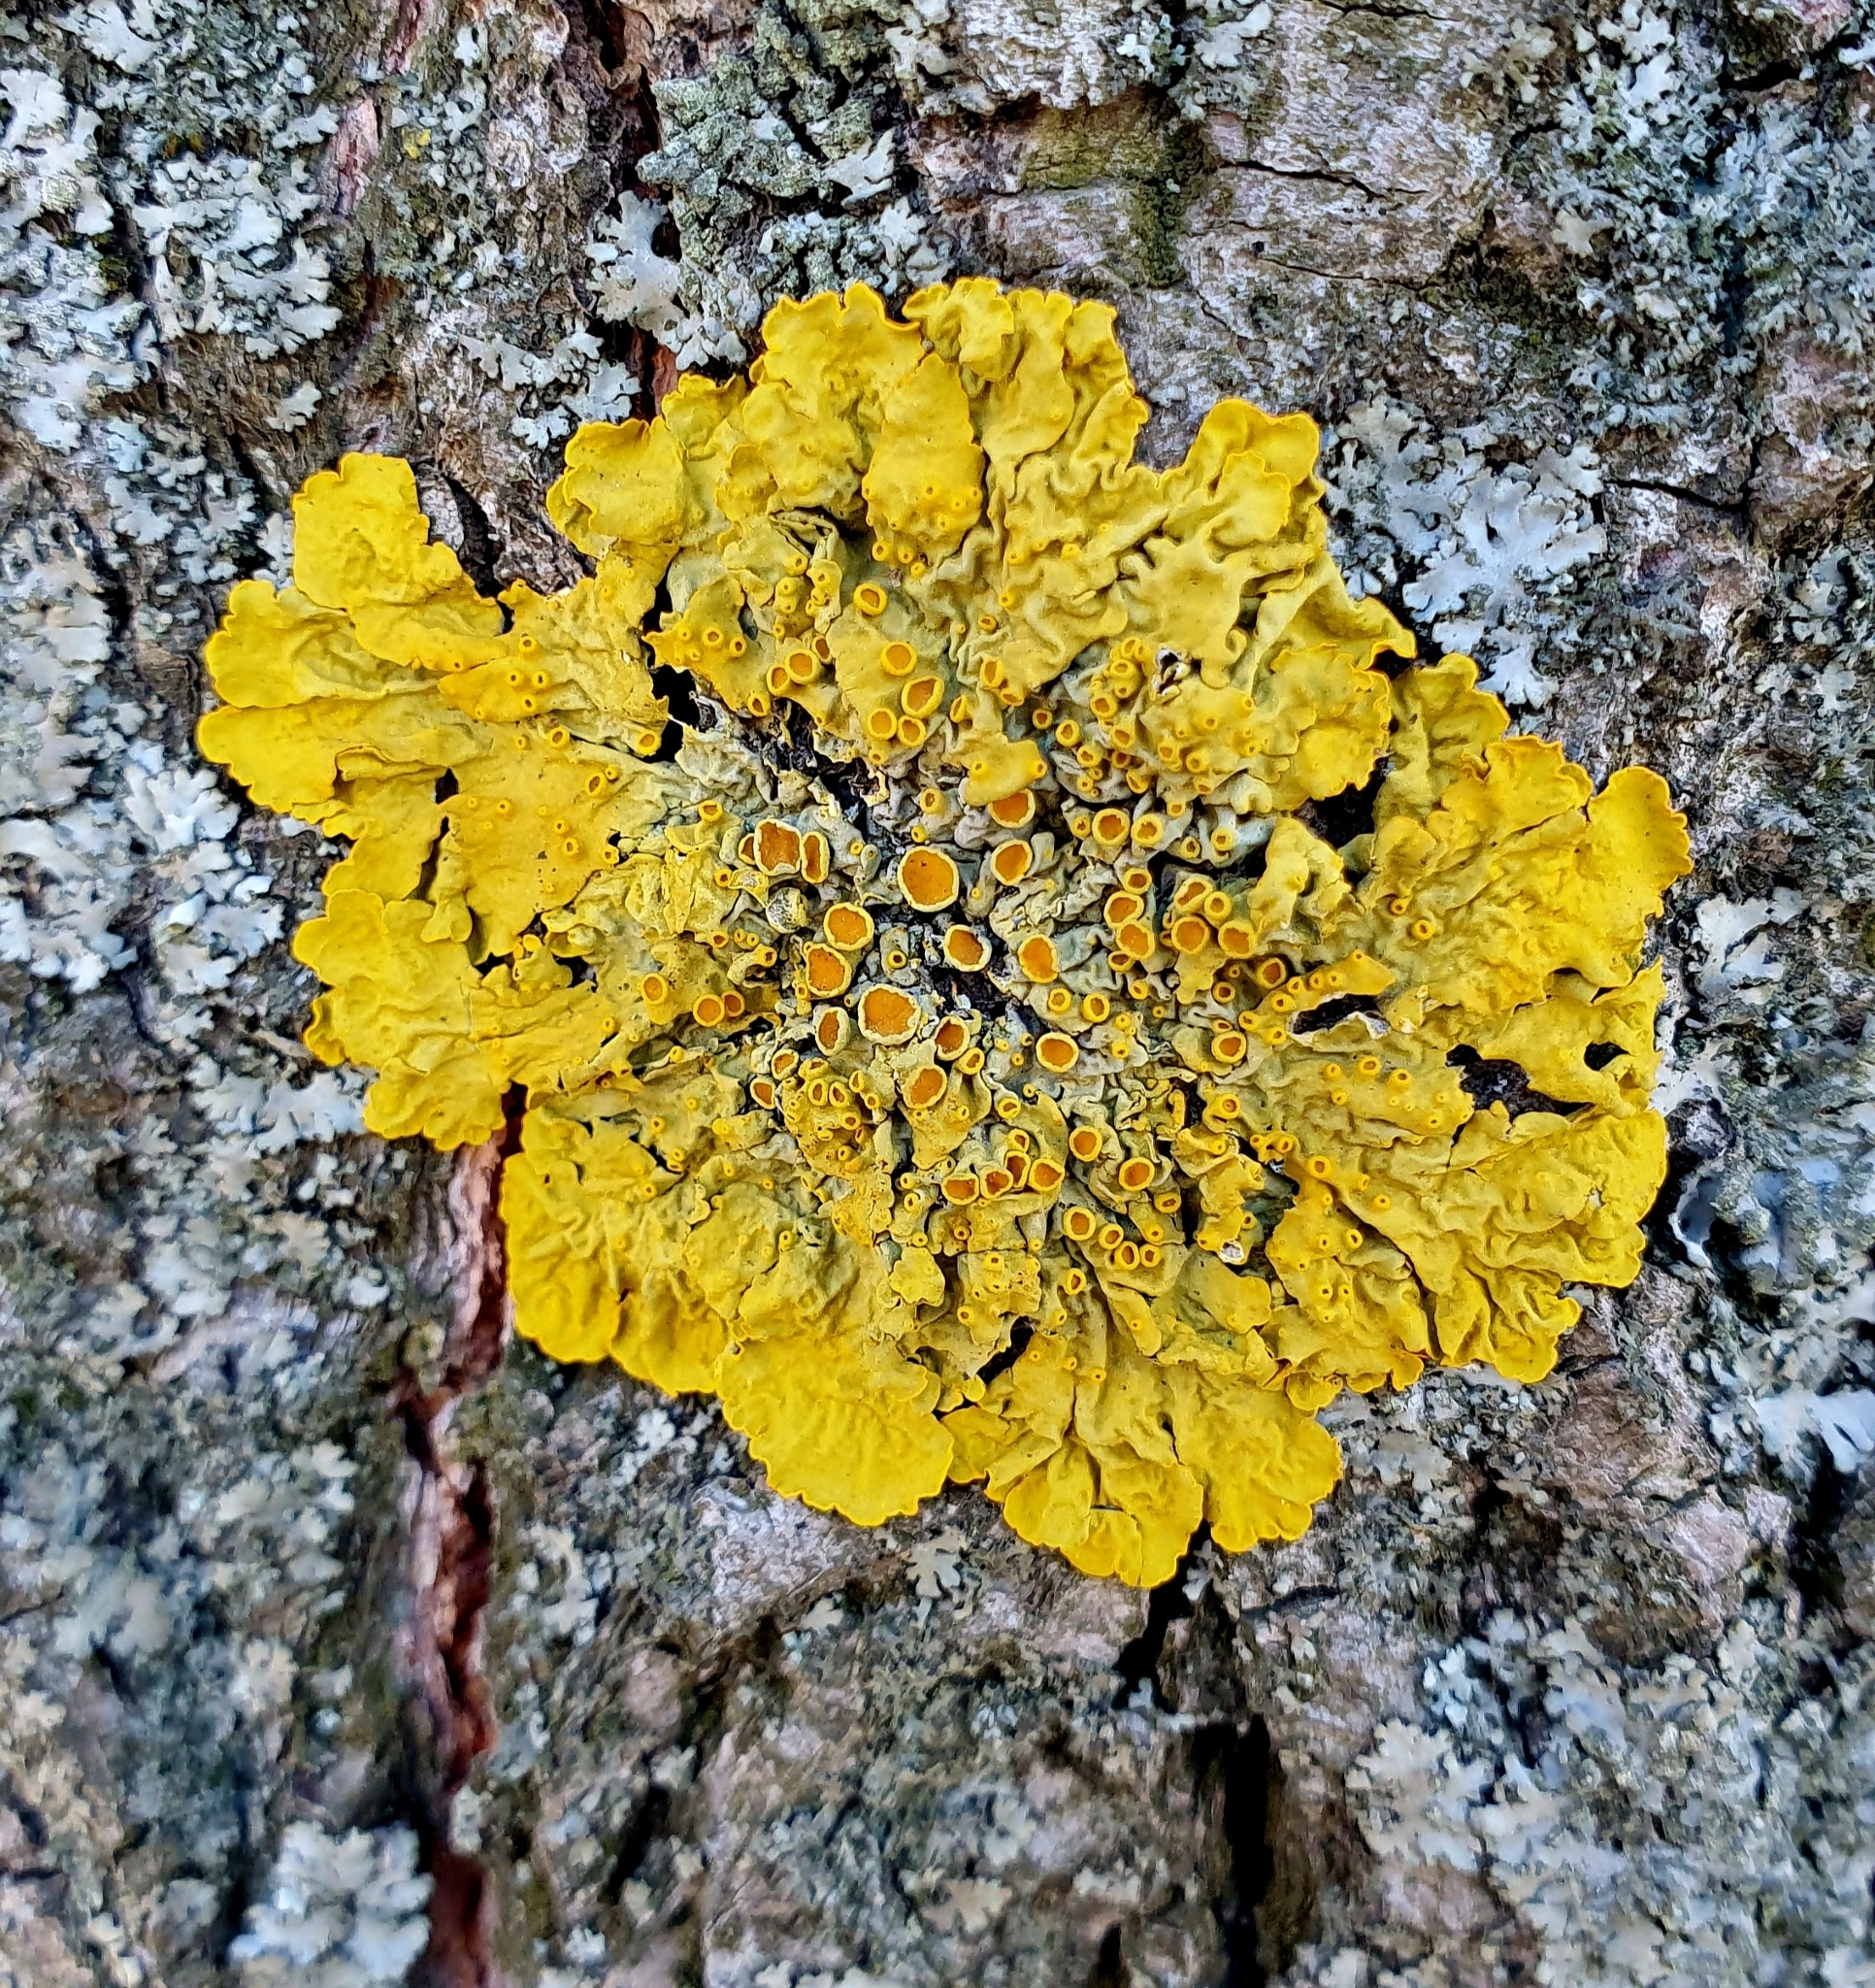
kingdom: Fungi
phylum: Ascomycota
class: Lecanoromycetes
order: Teloschistales
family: Teloschistaceae
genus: Xanthoria
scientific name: Xanthoria parietina
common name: Common orange lichen
